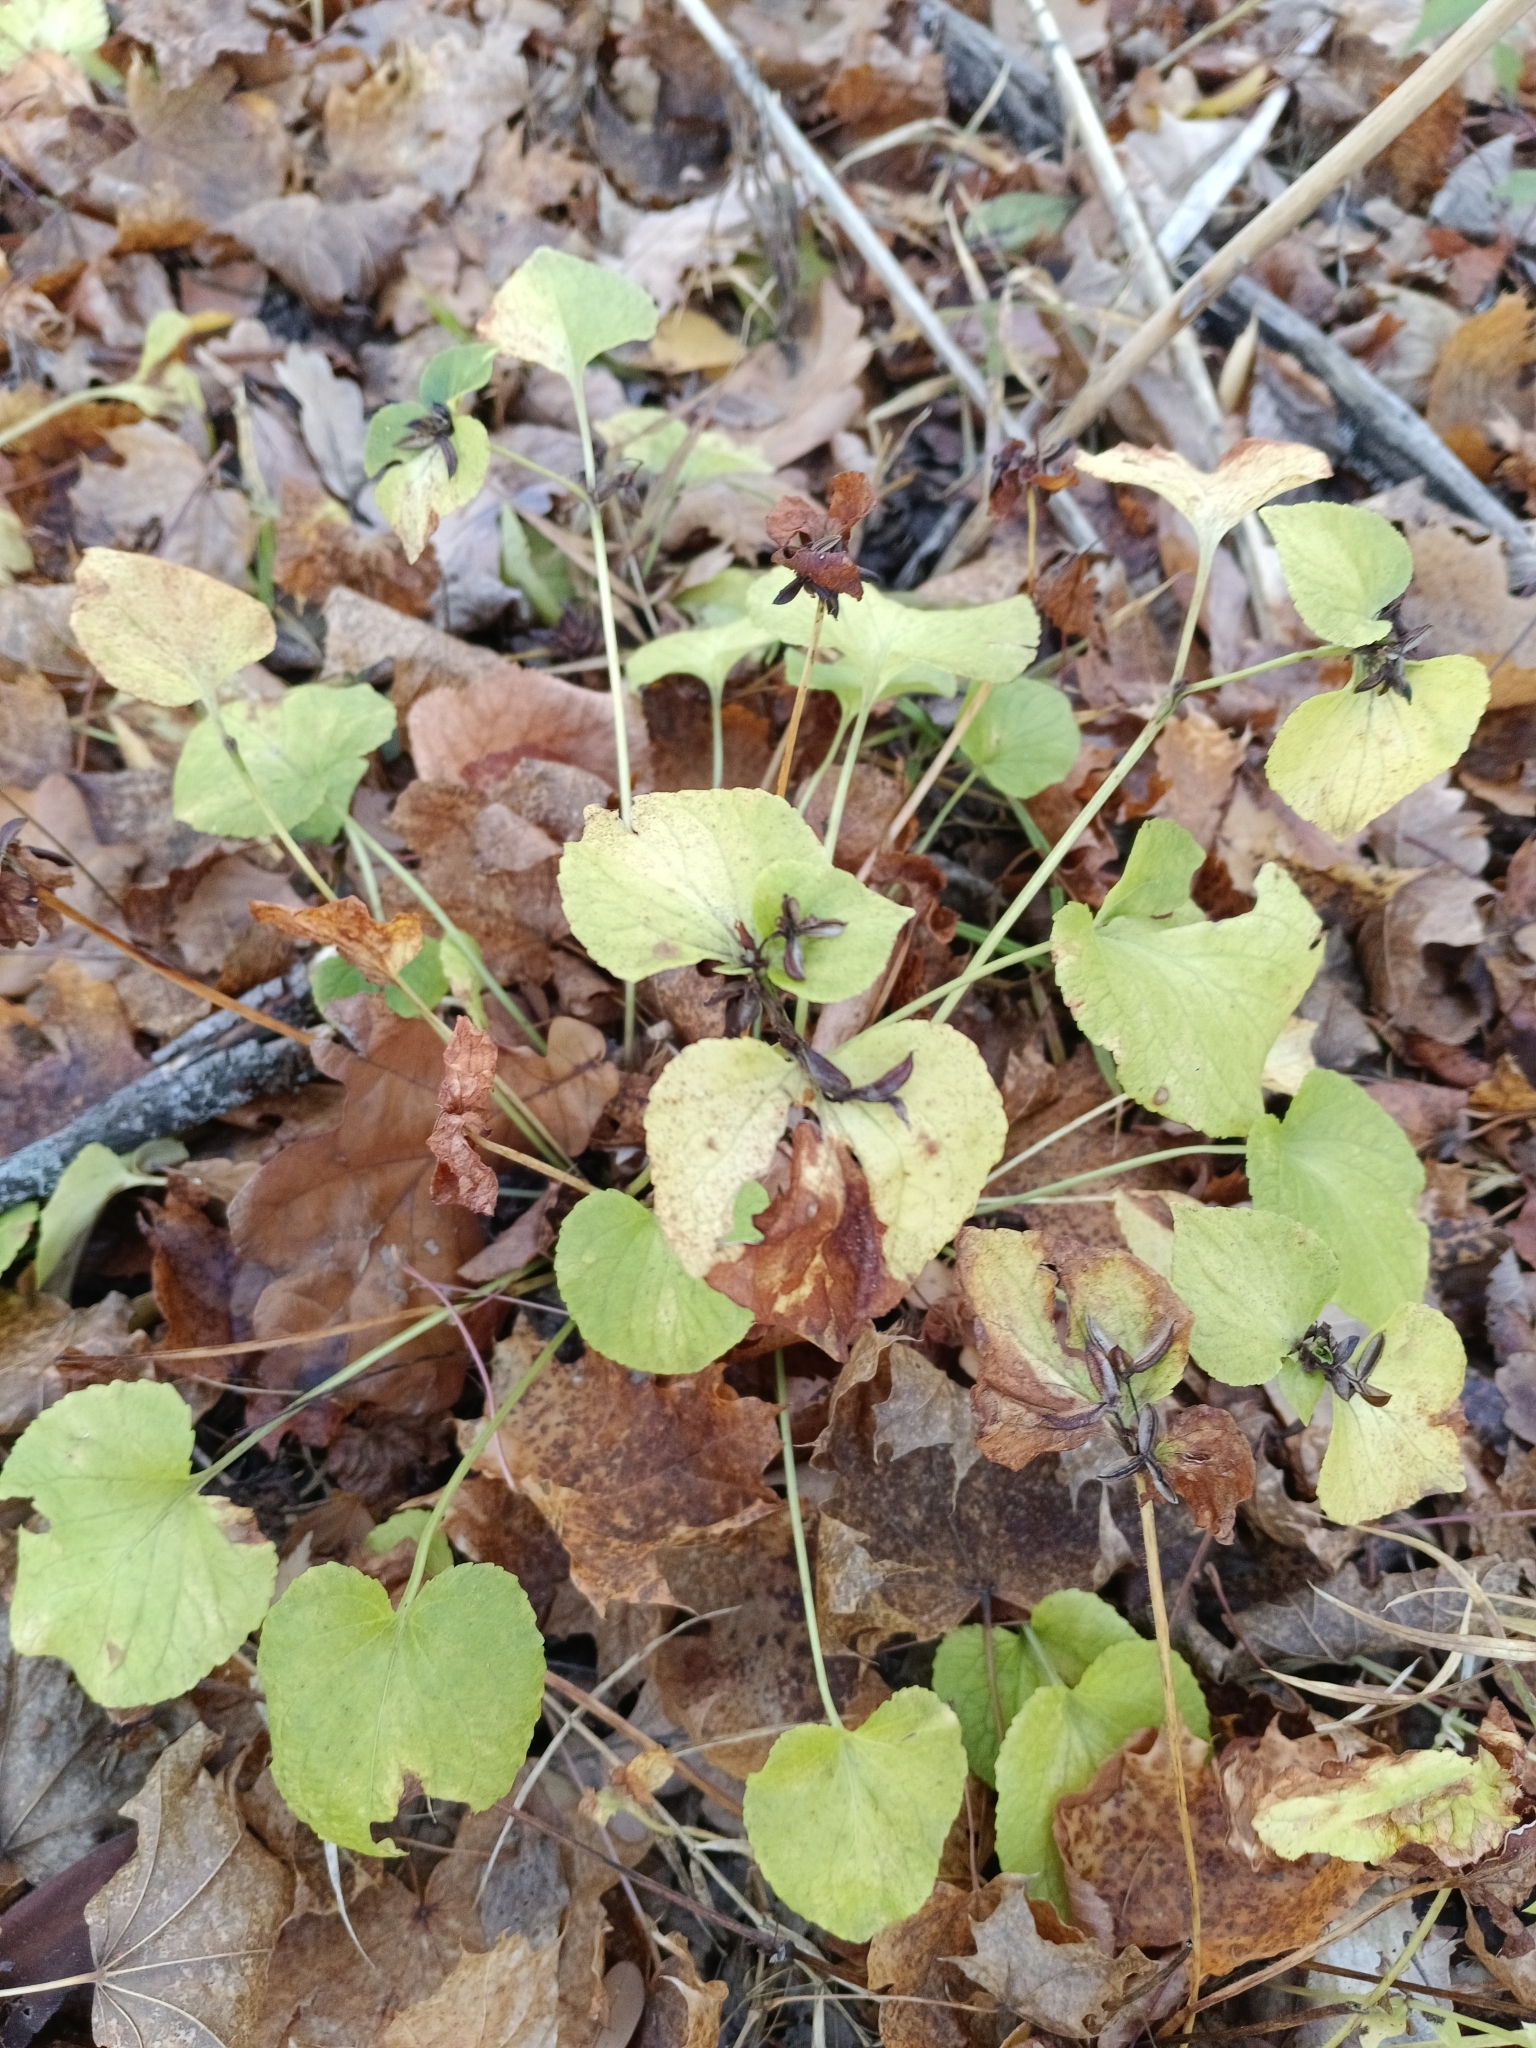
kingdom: Plantae
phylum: Tracheophyta
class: Magnoliopsida
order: Malpighiales
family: Violaceae
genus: Viola
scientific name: Viola mirabilis
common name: Wonder violet
